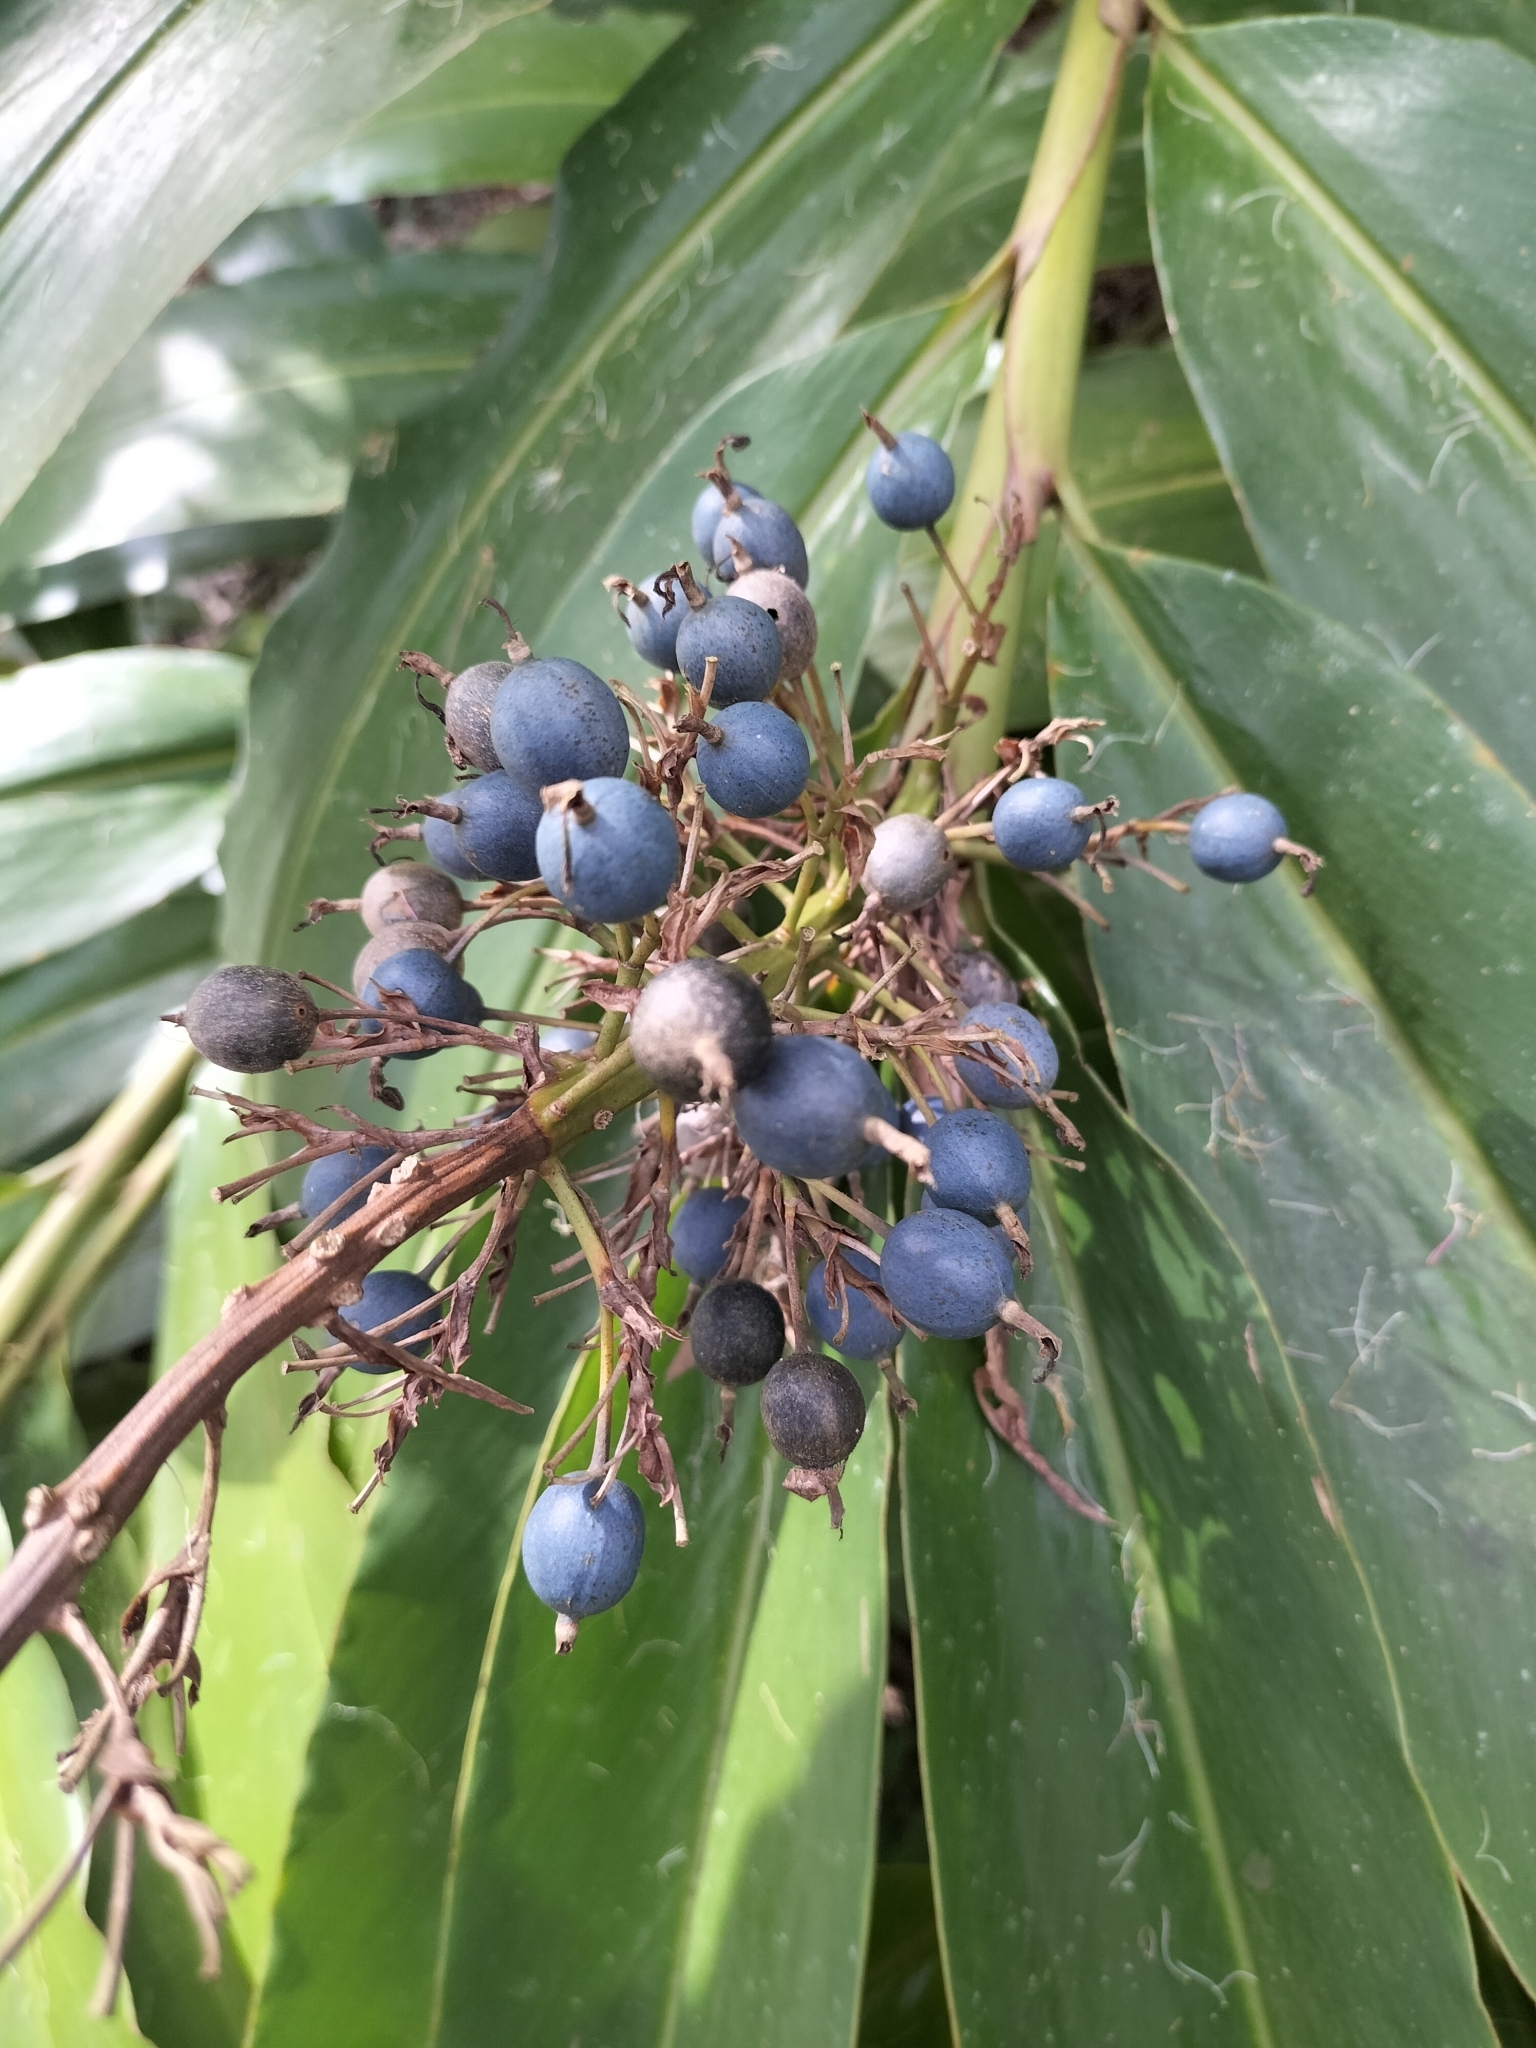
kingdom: Plantae
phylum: Tracheophyta
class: Liliopsida
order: Zingiberales
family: Zingiberaceae
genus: Alpinia
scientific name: Alpinia caerulea
